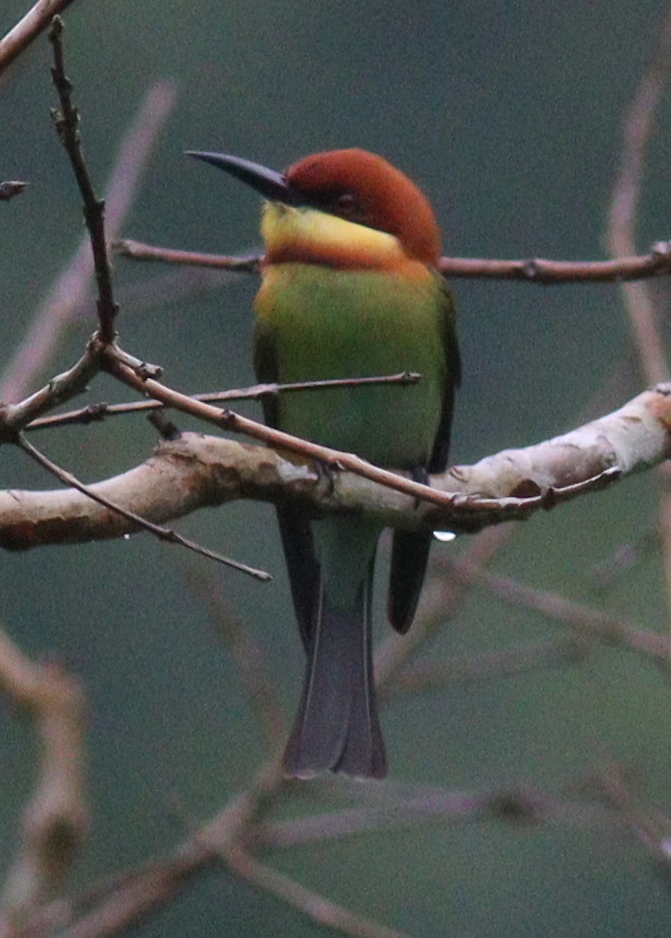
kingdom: Animalia
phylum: Chordata
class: Aves
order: Coraciiformes
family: Meropidae
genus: Merops
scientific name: Merops leschenaulti
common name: Chestnut-headed bee-eater
